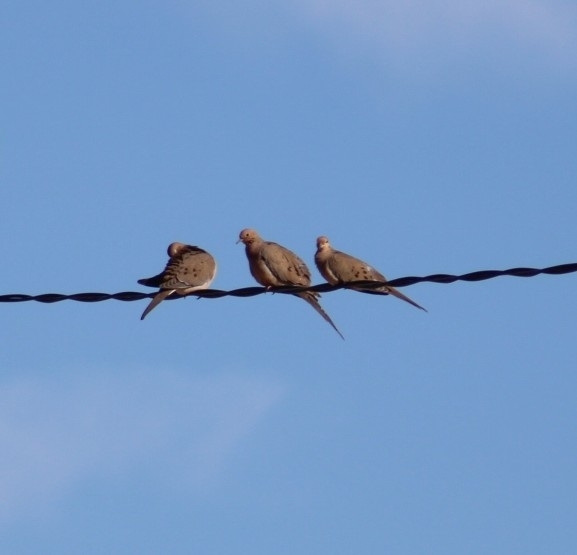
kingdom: Animalia
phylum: Chordata
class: Aves
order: Columbiformes
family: Columbidae
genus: Zenaida
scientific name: Zenaida macroura
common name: Mourning dove
